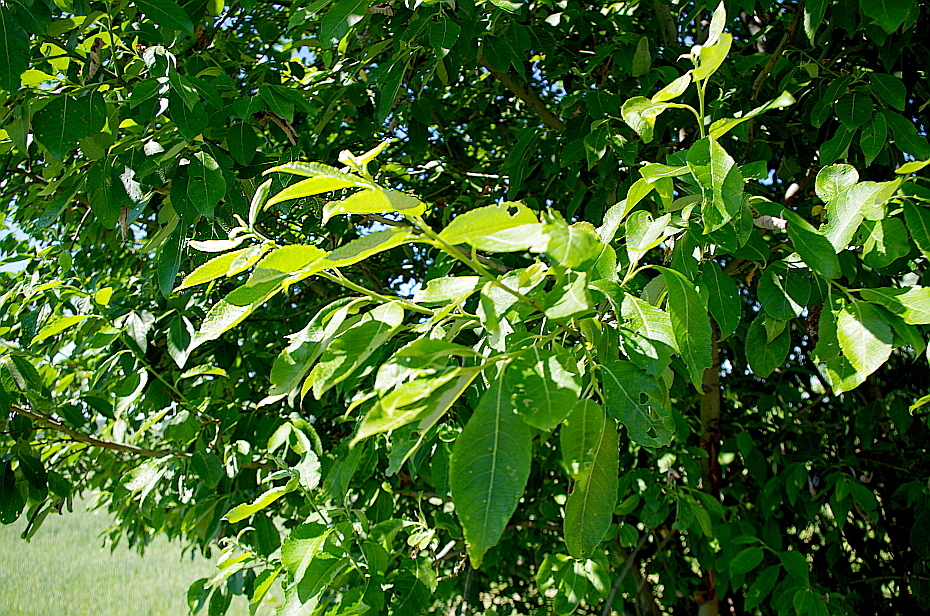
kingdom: Plantae
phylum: Tracheophyta
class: Magnoliopsida
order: Malpighiales
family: Salicaceae
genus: Salix
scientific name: Salix caprea
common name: Goat willow
